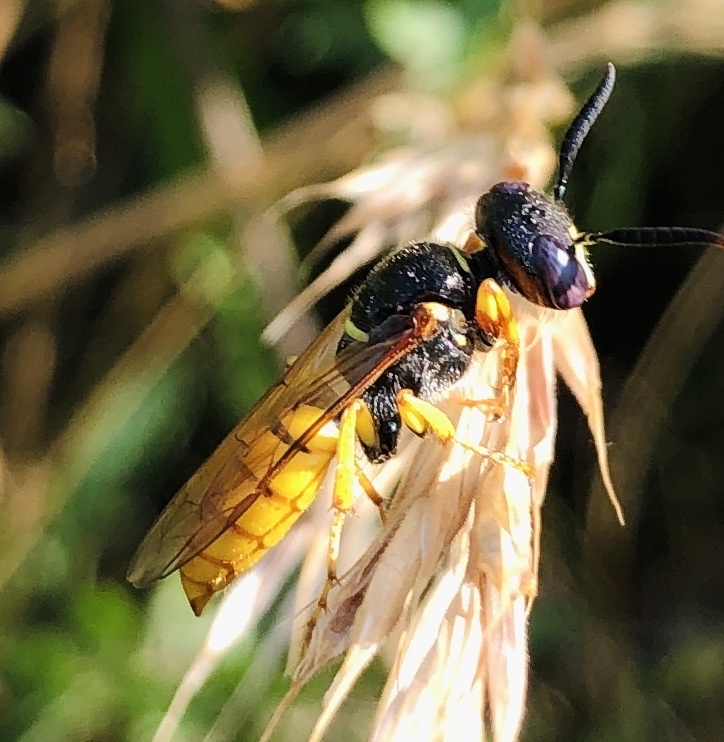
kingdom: Animalia
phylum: Arthropoda
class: Insecta
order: Hymenoptera
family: Crabronidae
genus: Philanthus
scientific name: Philanthus triangulum
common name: Bee wolf
